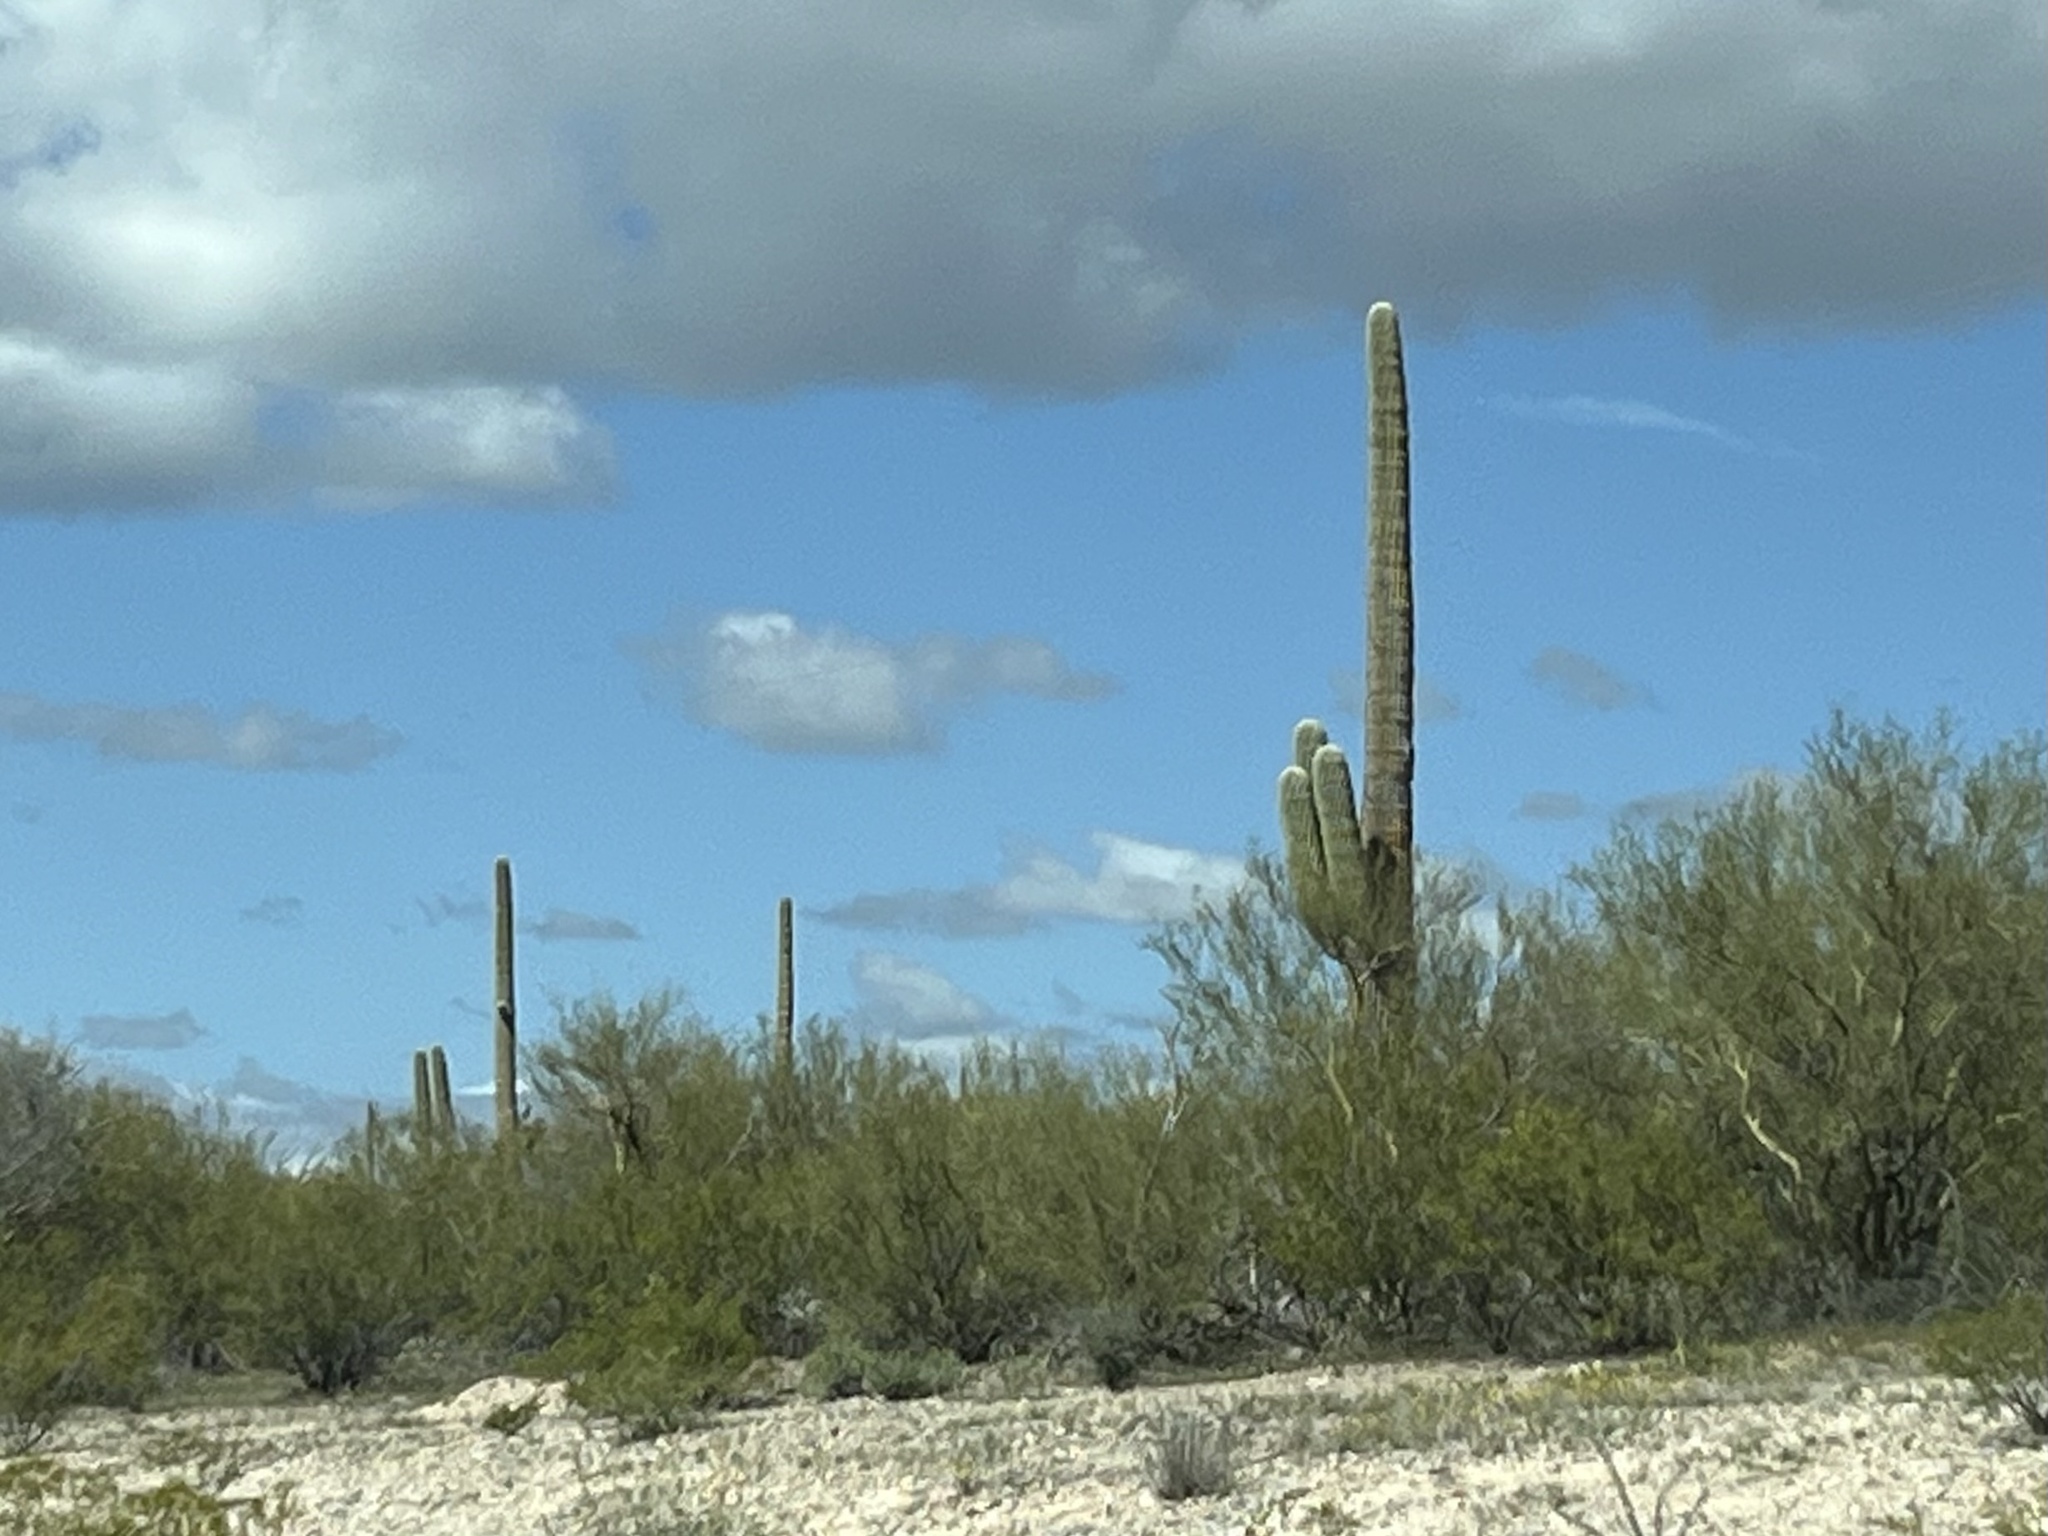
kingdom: Plantae
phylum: Tracheophyta
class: Magnoliopsida
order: Caryophyllales
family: Cactaceae
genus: Carnegiea
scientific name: Carnegiea gigantea
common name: Saguaro
